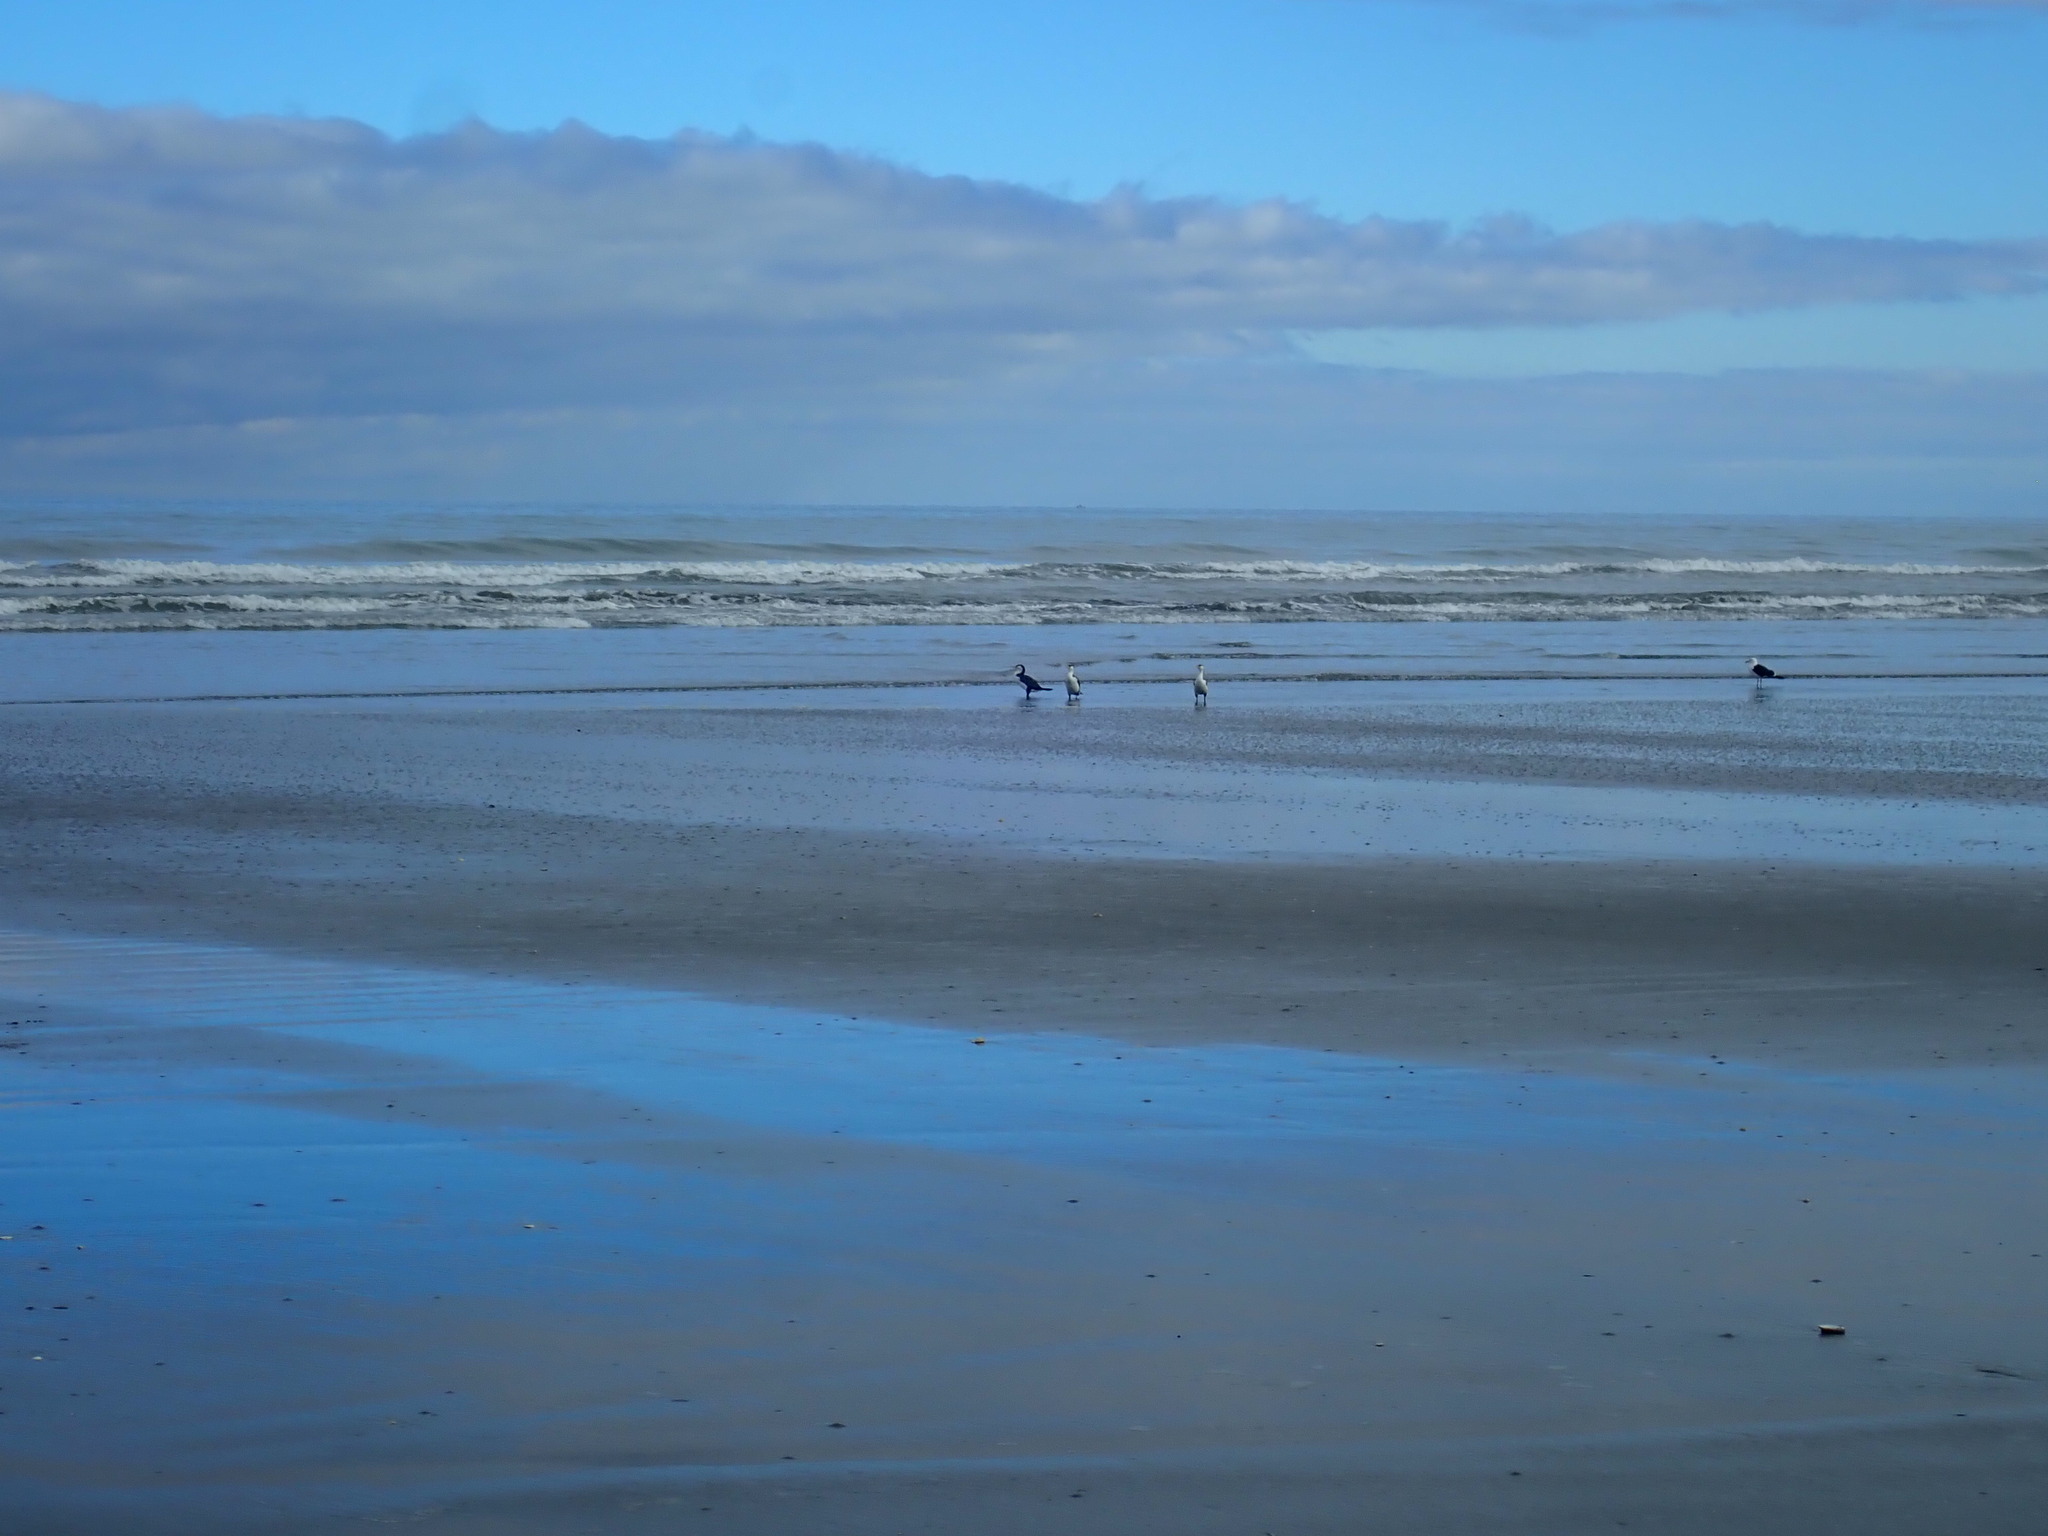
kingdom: Animalia
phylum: Chordata
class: Aves
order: Suliformes
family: Phalacrocoracidae
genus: Phalacrocorax
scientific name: Phalacrocorax varius
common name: Pied cormorant
